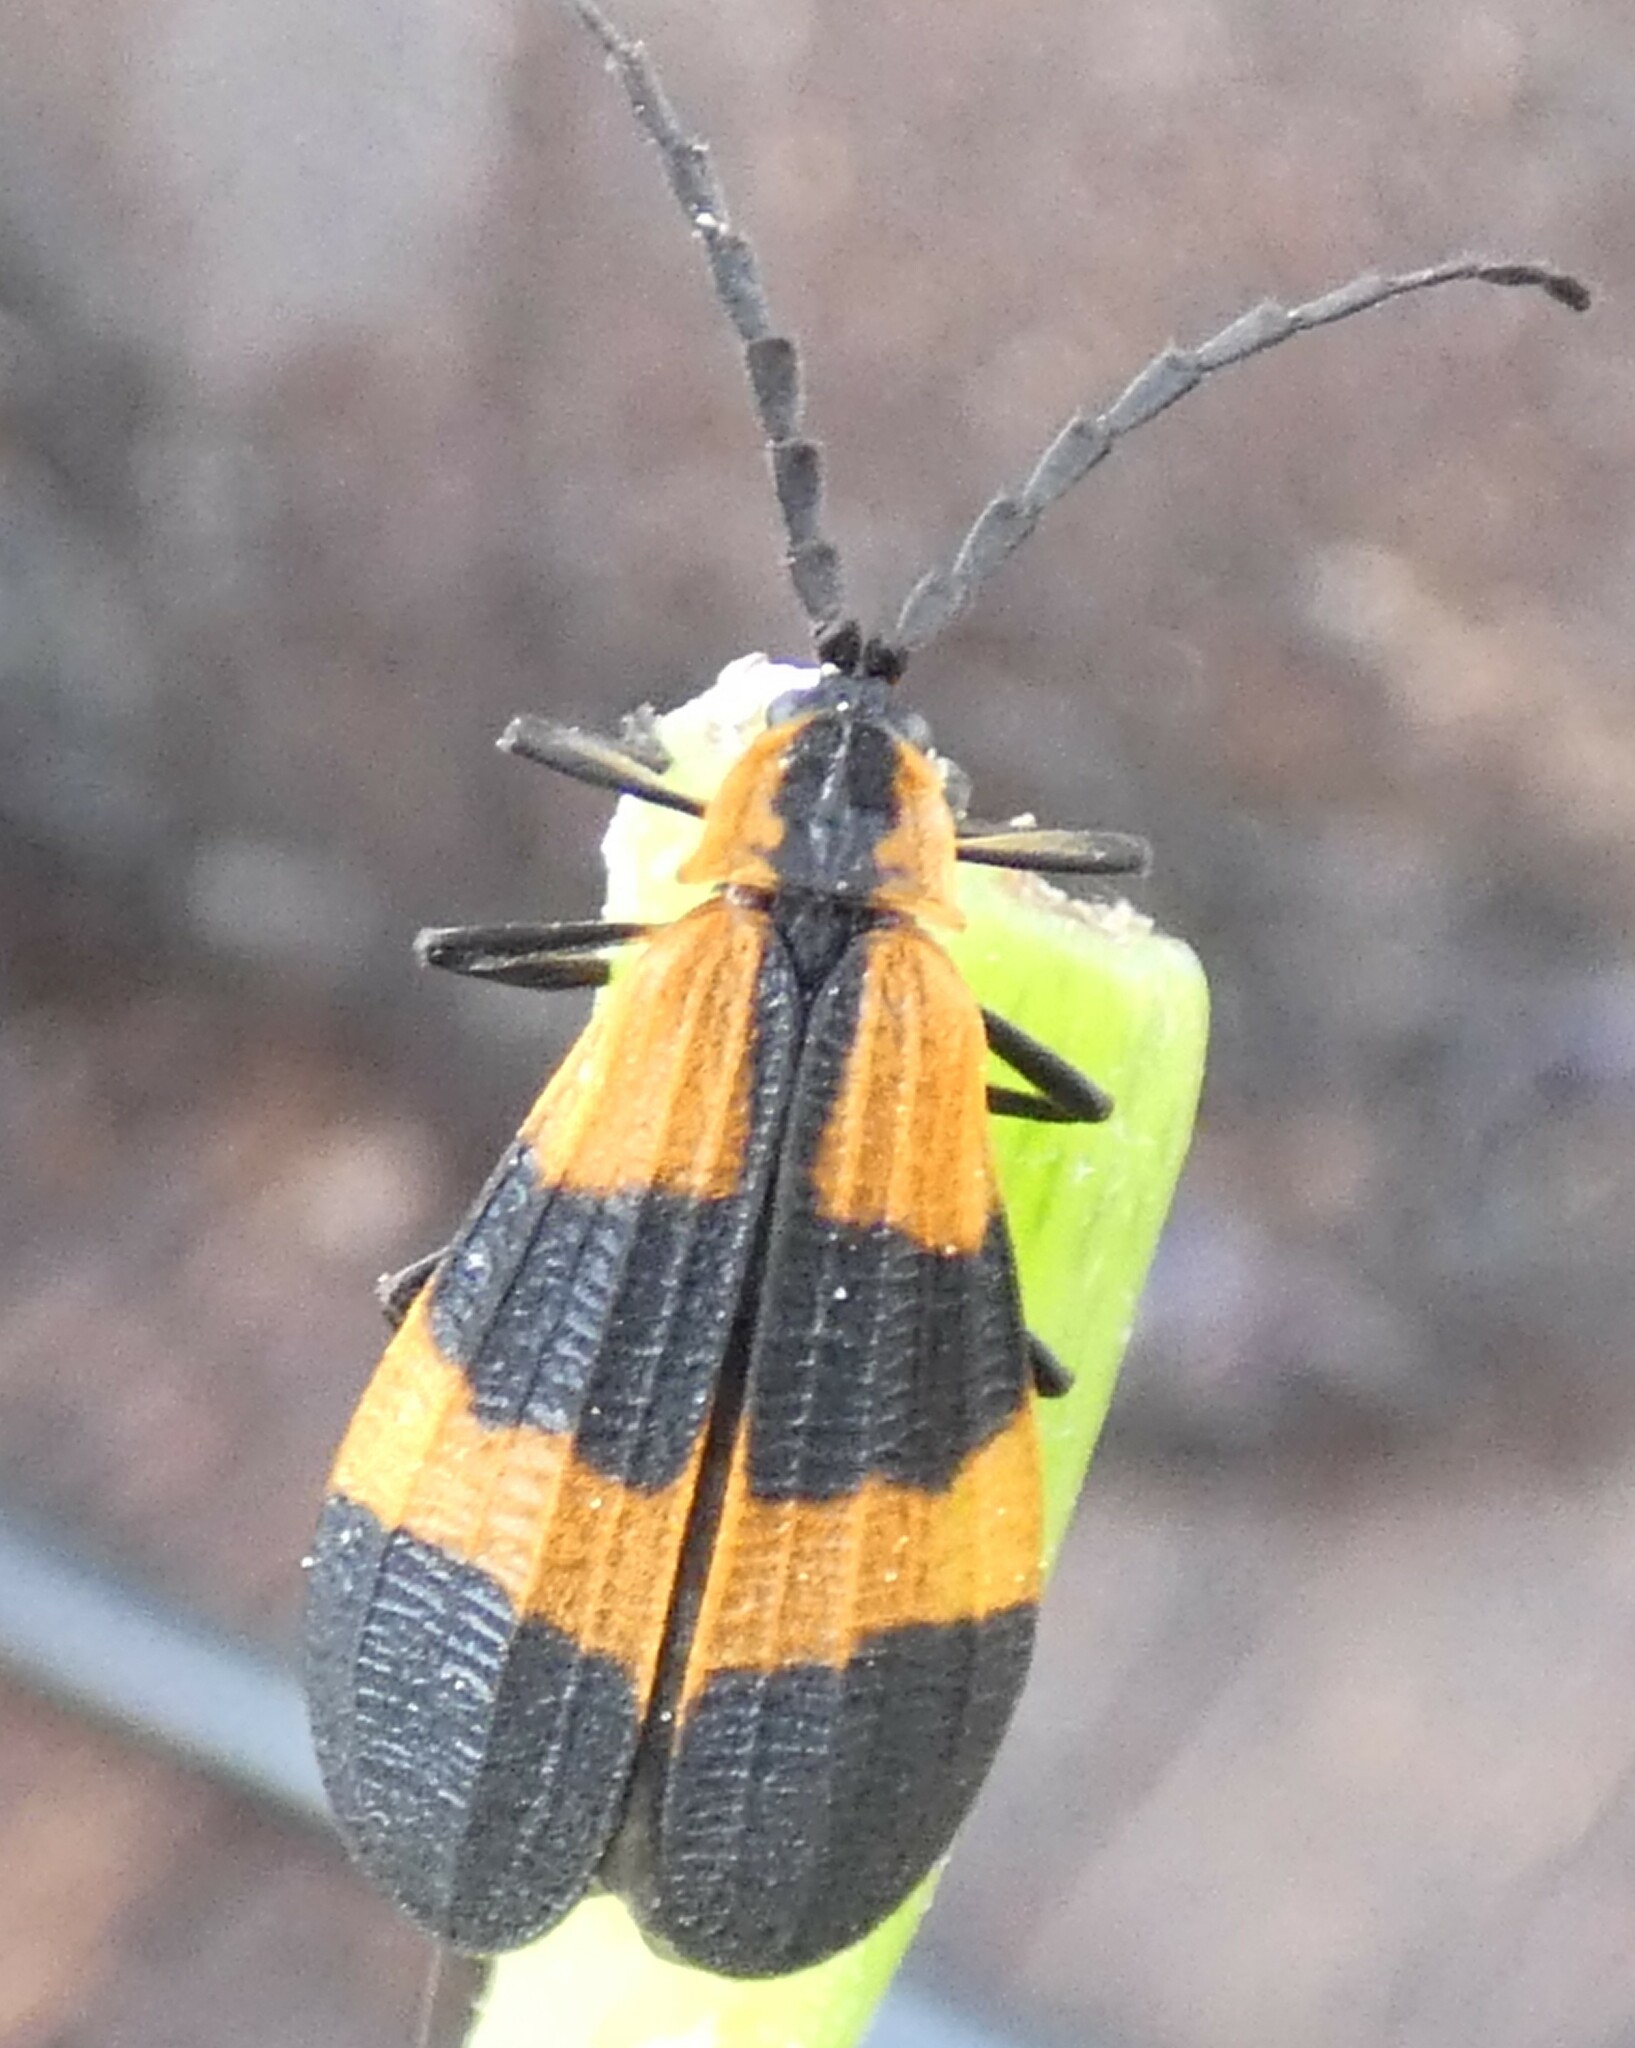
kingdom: Animalia
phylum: Arthropoda
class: Insecta
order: Coleoptera
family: Lycidae
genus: Calopteron
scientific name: Calopteron discrepans
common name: Banded net-winged beetle
